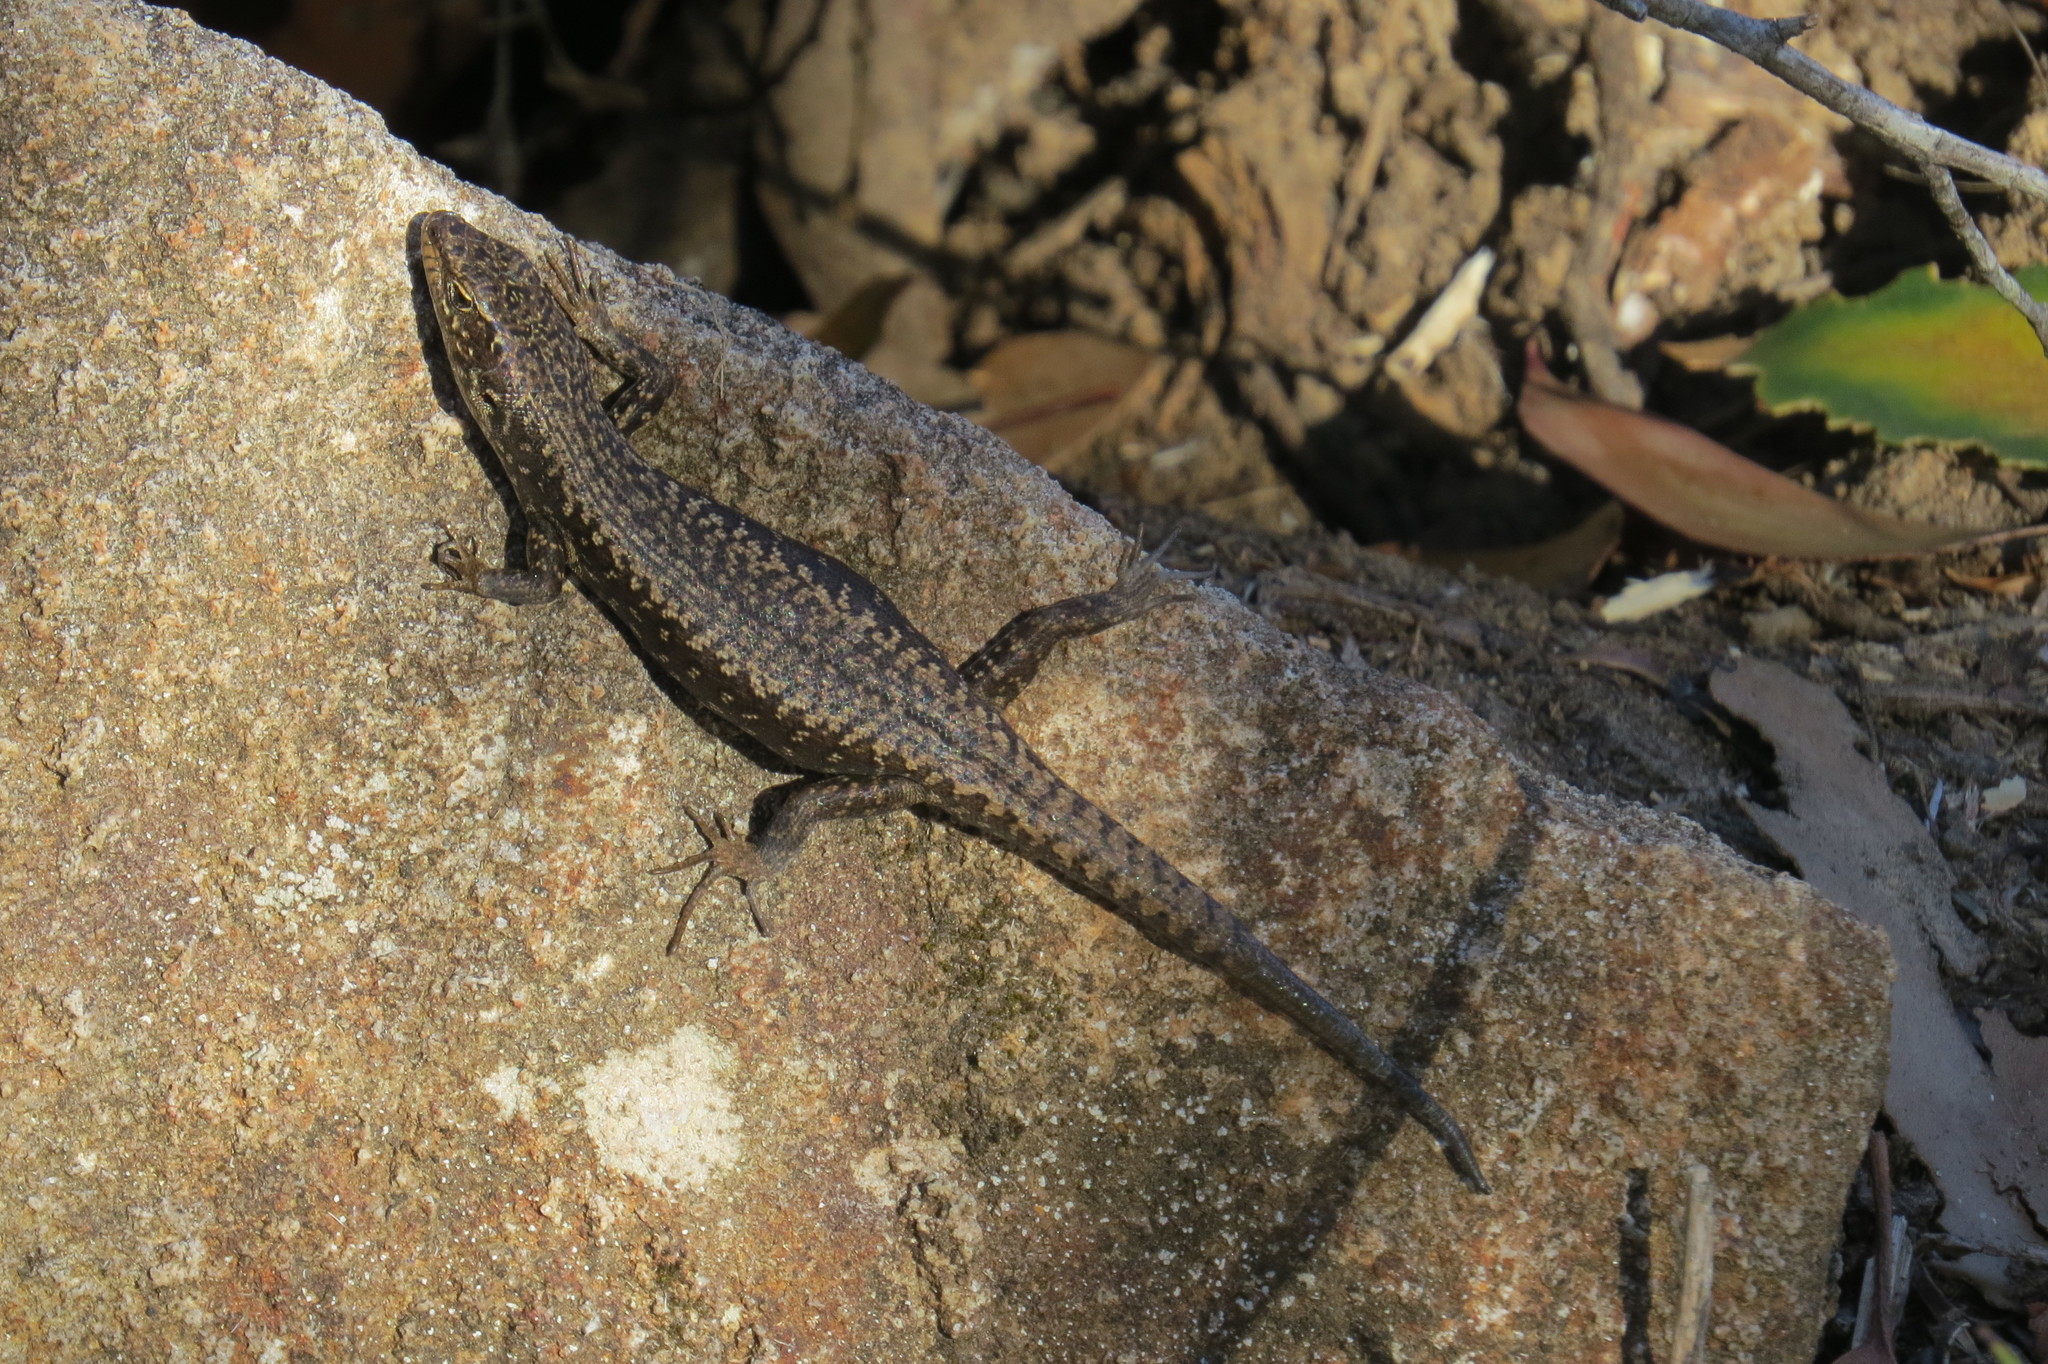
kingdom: Animalia
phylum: Chordata
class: Squamata
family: Scincidae
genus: Carinascincus
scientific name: Carinascincus ocellatus
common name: Ocellated cool-skink
